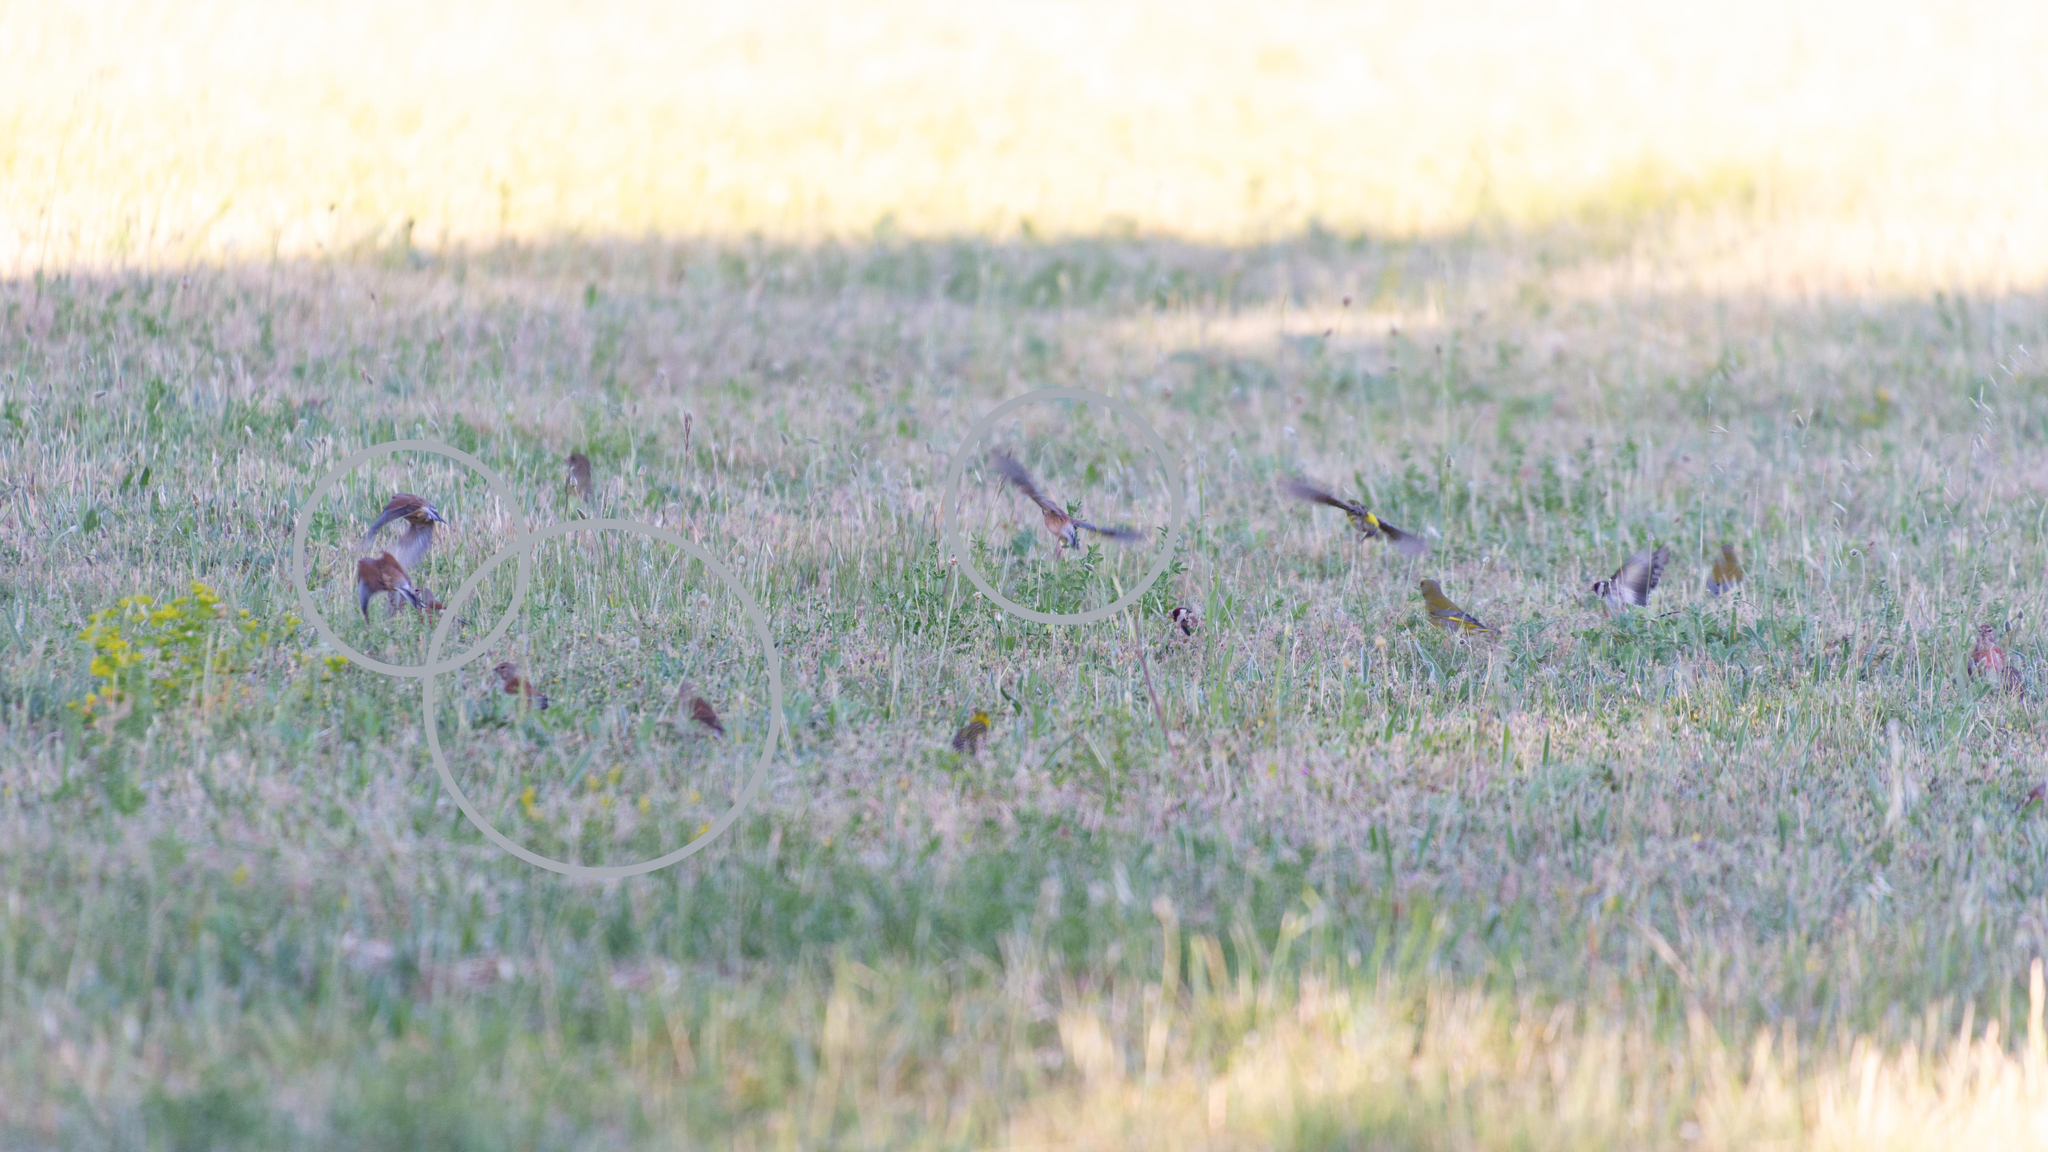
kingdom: Animalia
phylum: Chordata
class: Aves
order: Passeriformes
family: Fringillidae
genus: Linaria
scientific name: Linaria cannabina
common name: Common linnet
